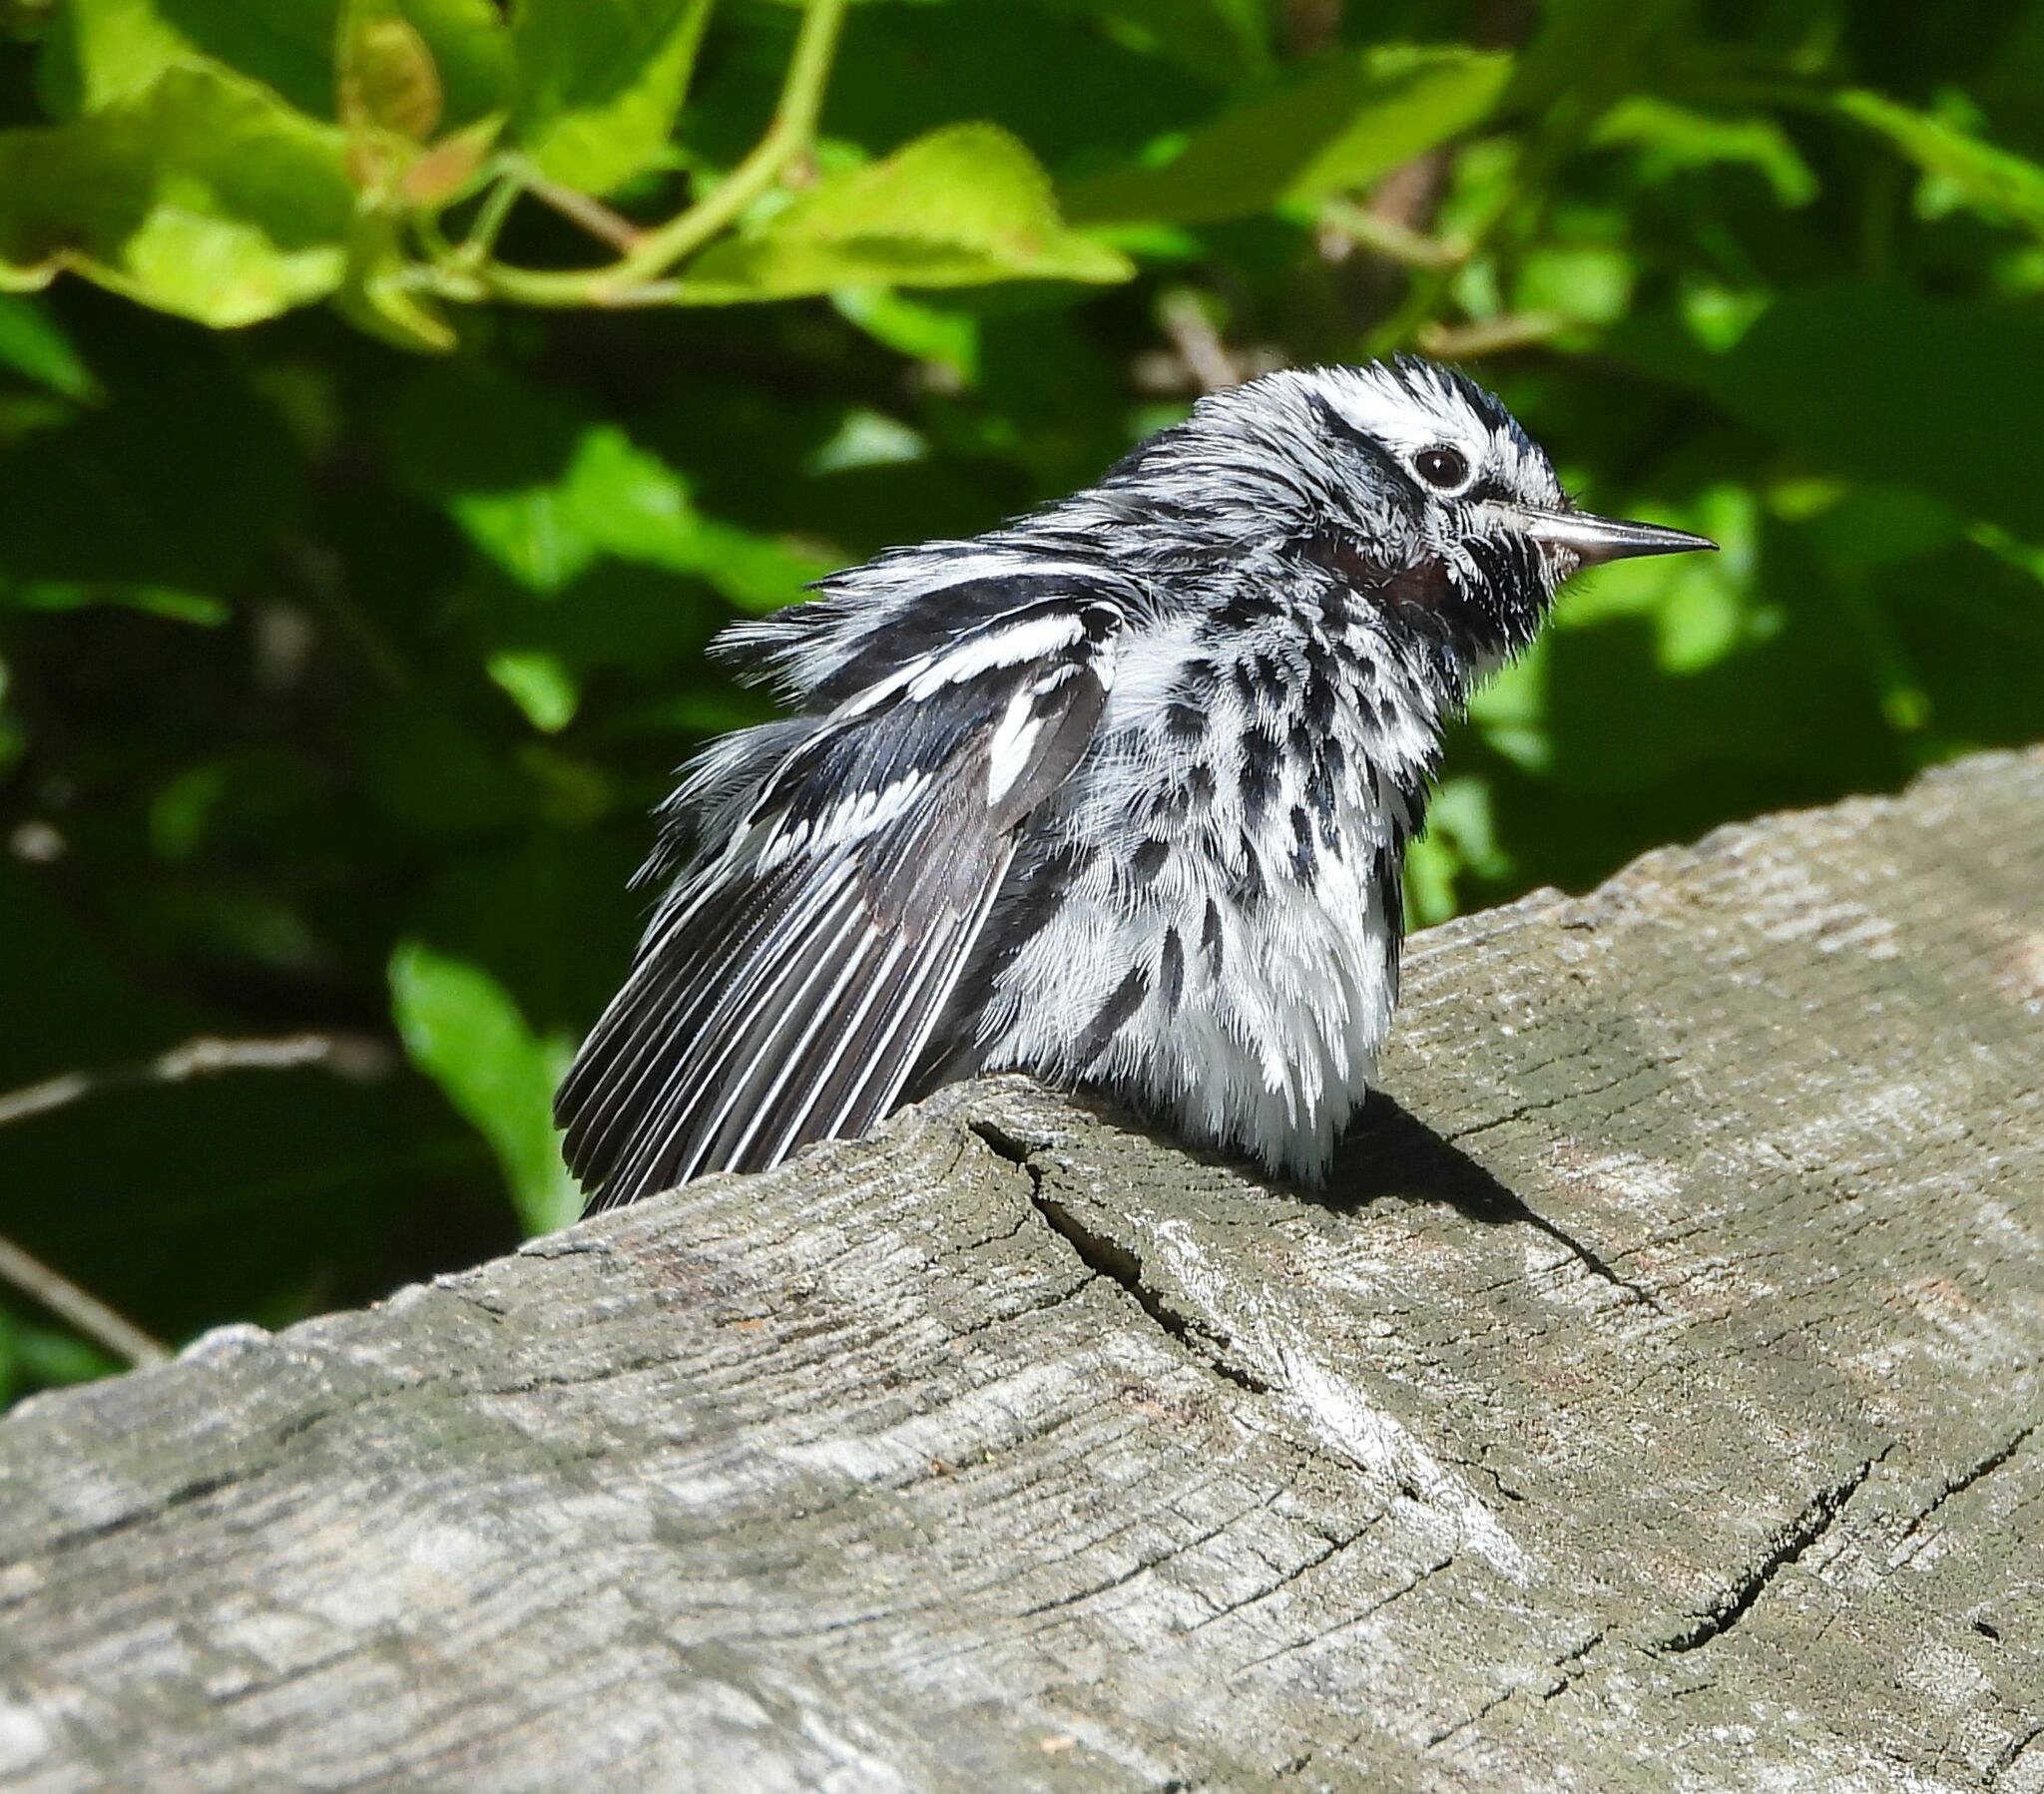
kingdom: Animalia
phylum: Chordata
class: Aves
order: Passeriformes
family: Parulidae
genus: Mniotilta
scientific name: Mniotilta varia
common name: Black-and-white warbler
